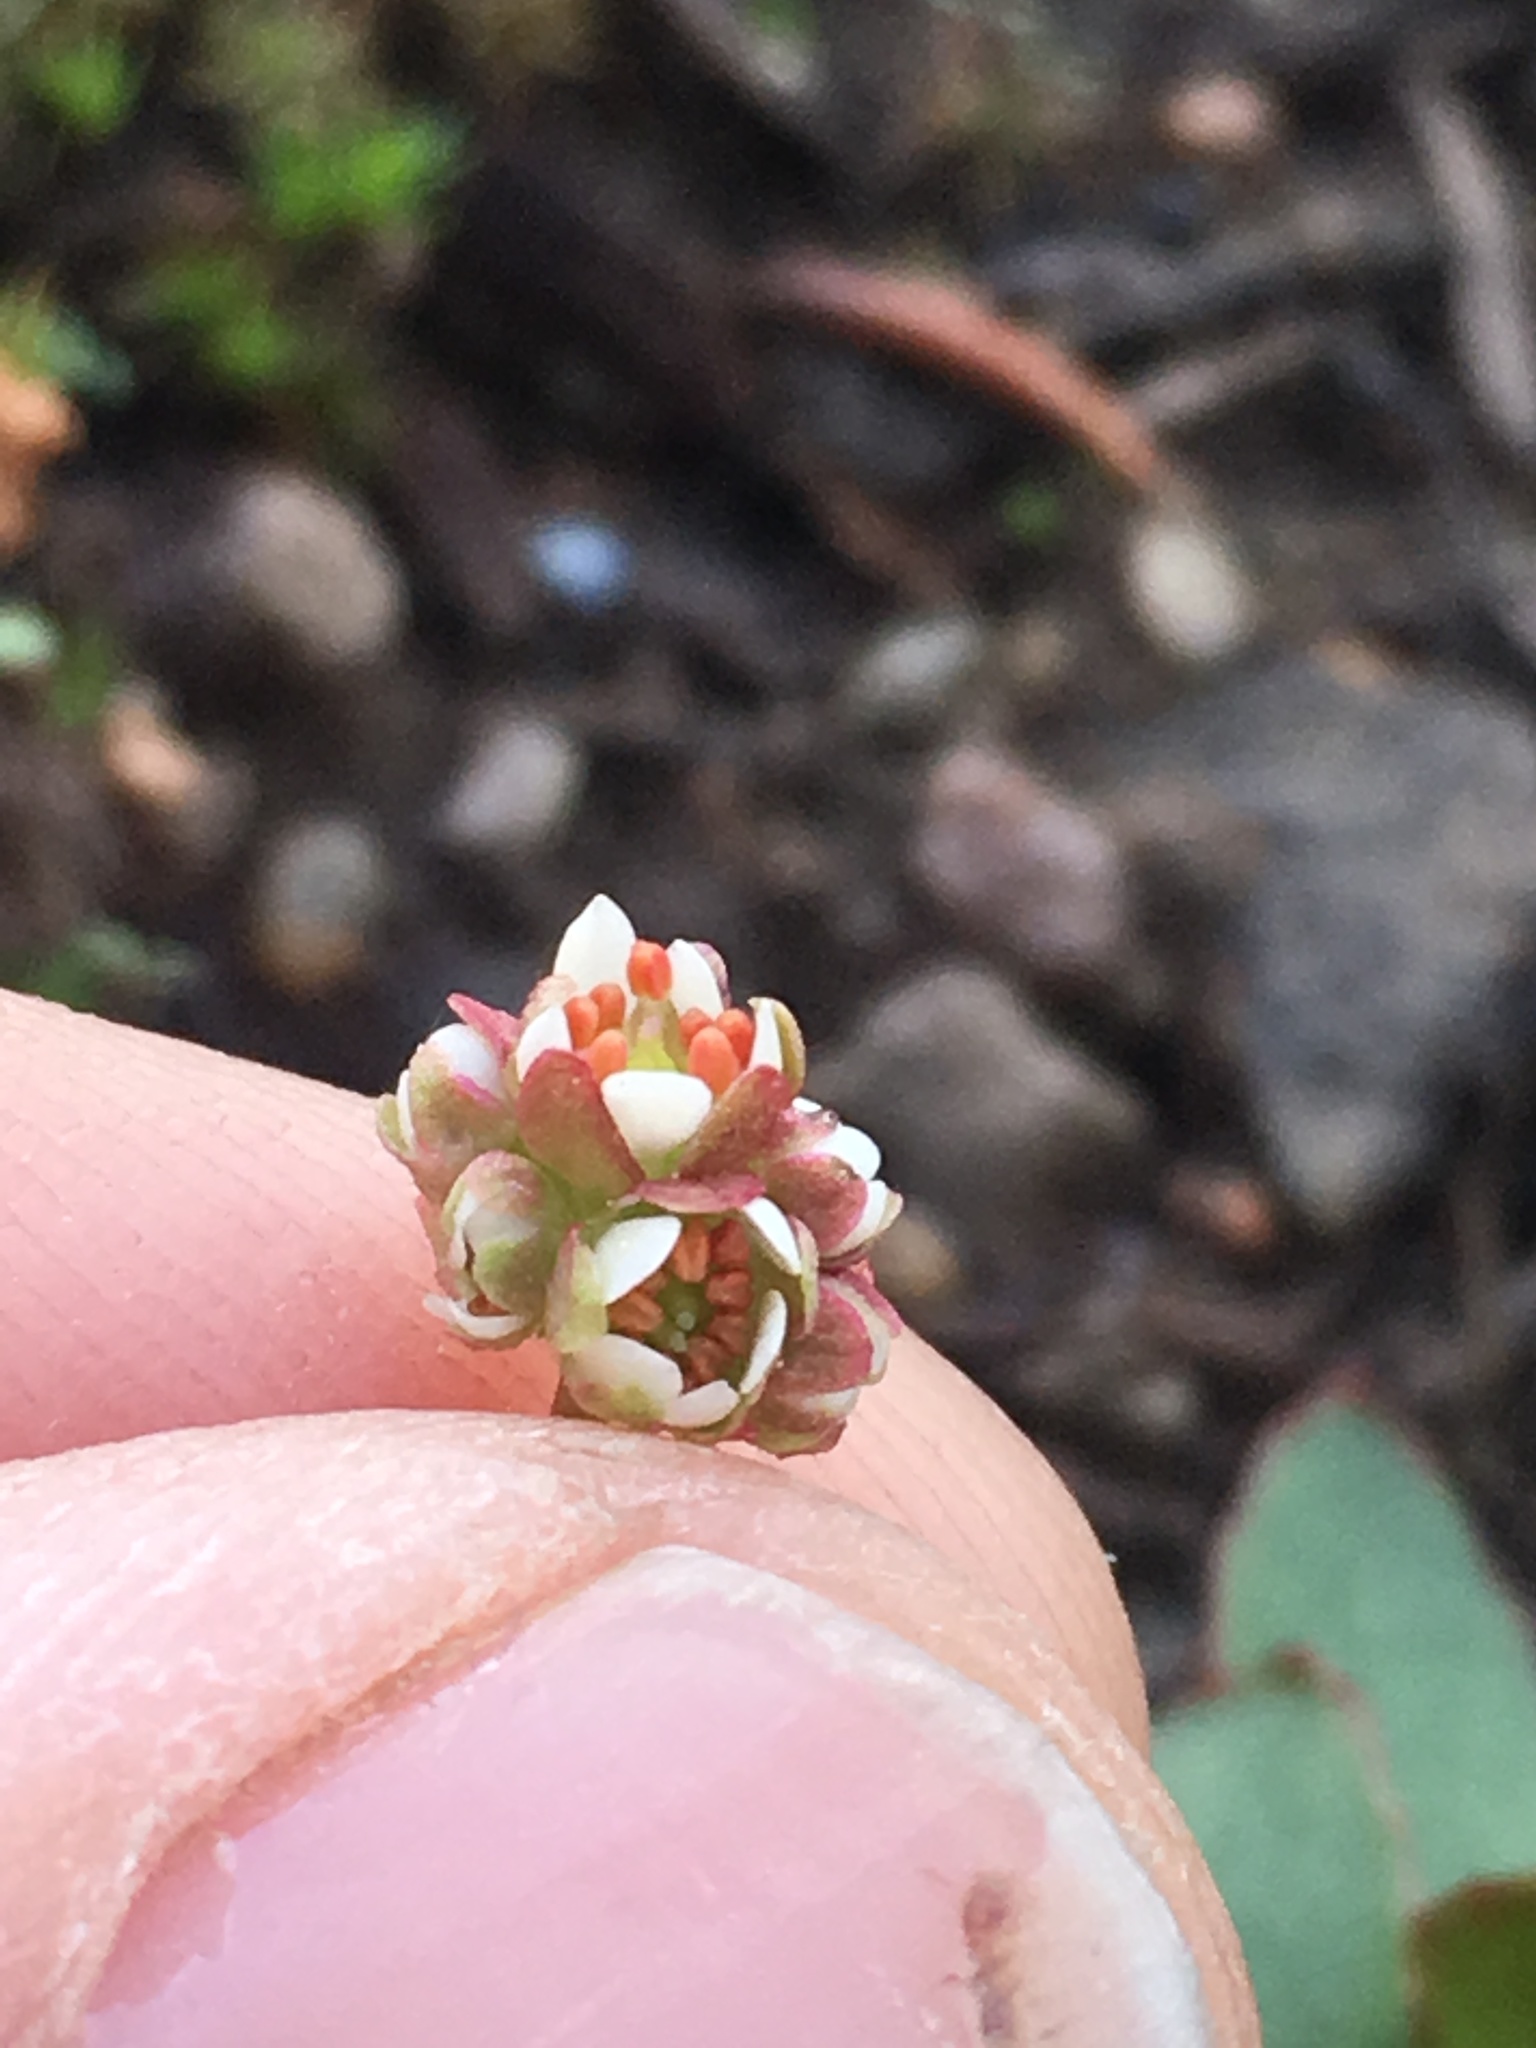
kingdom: Plantae
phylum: Tracheophyta
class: Magnoliopsida
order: Saxifragales
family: Saxifragaceae
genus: Micranthes
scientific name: Micranthes aprica
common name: Sierra saxifrage
